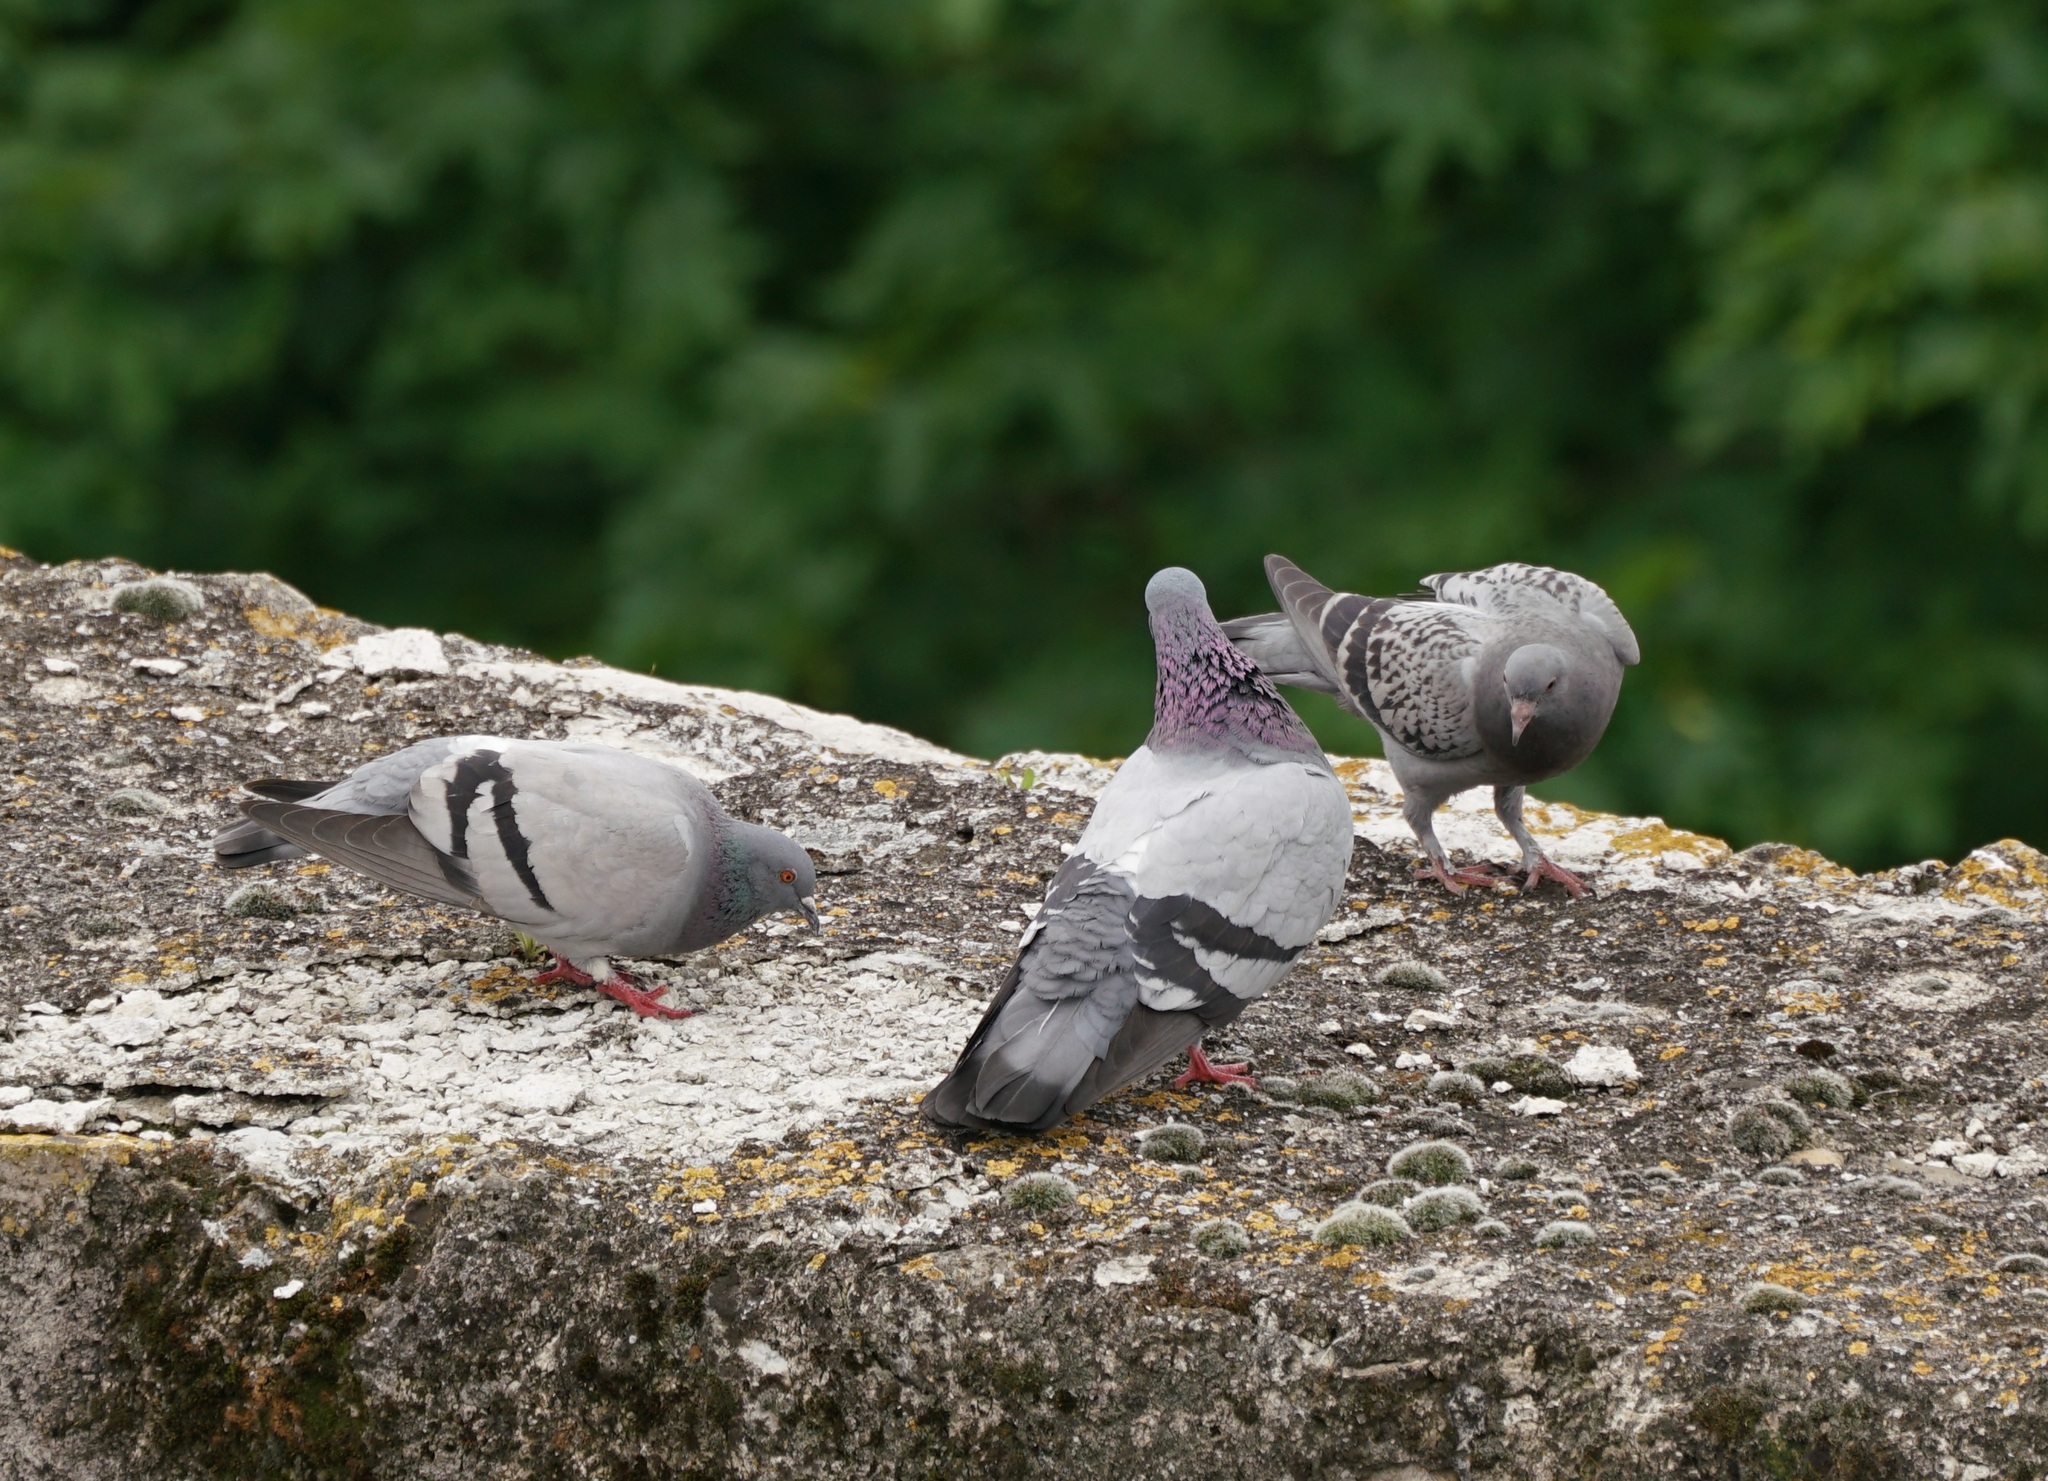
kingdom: Animalia
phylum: Chordata
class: Aves
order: Columbiformes
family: Columbidae
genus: Columba
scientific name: Columba livia
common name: Rock pigeon
